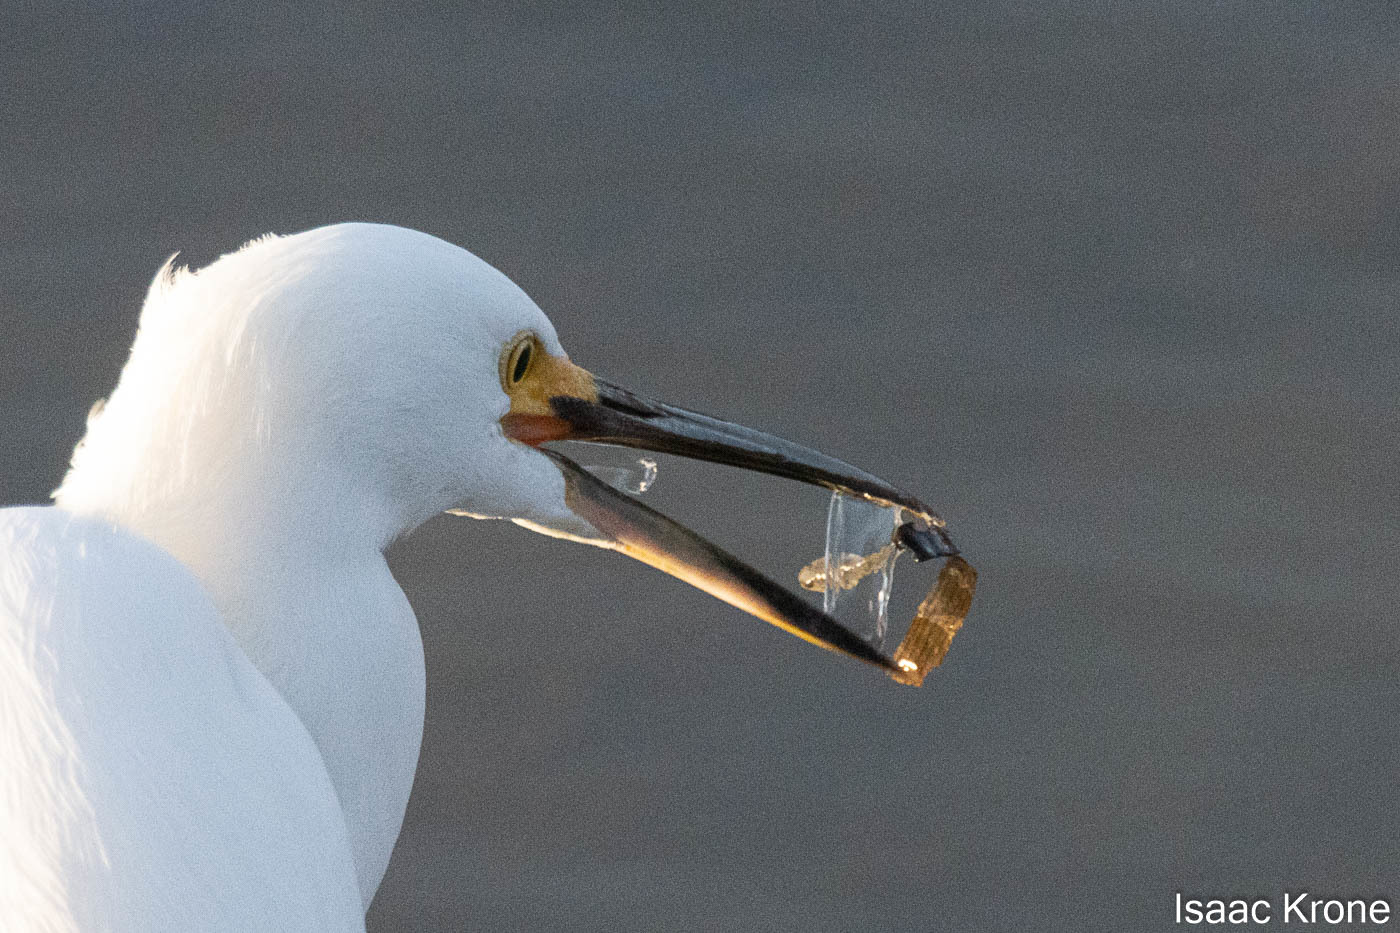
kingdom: Animalia
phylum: Chordata
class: Aves
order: Pelecaniformes
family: Ardeidae
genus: Egretta
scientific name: Egretta thula
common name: Snowy egret
